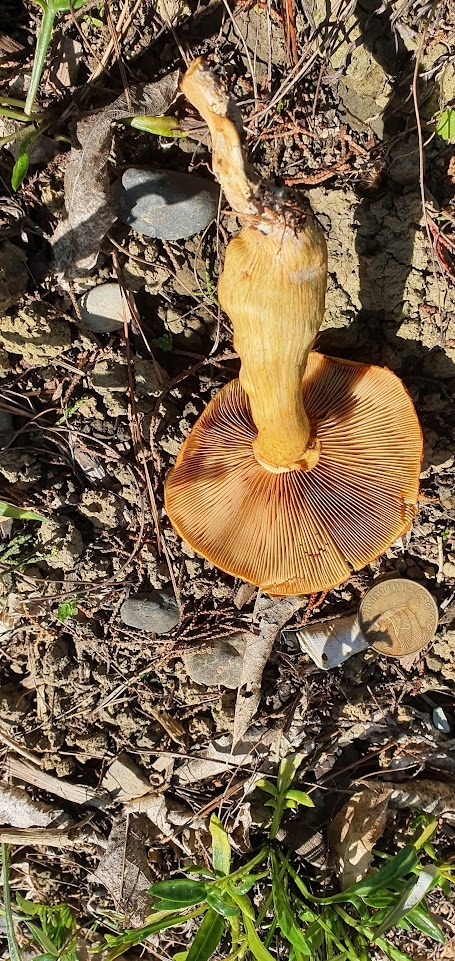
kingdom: Fungi
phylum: Basidiomycota
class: Agaricomycetes
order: Agaricales
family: Hymenogastraceae
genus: Gymnopilus
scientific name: Gymnopilus junonius
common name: Spectacular rustgill
